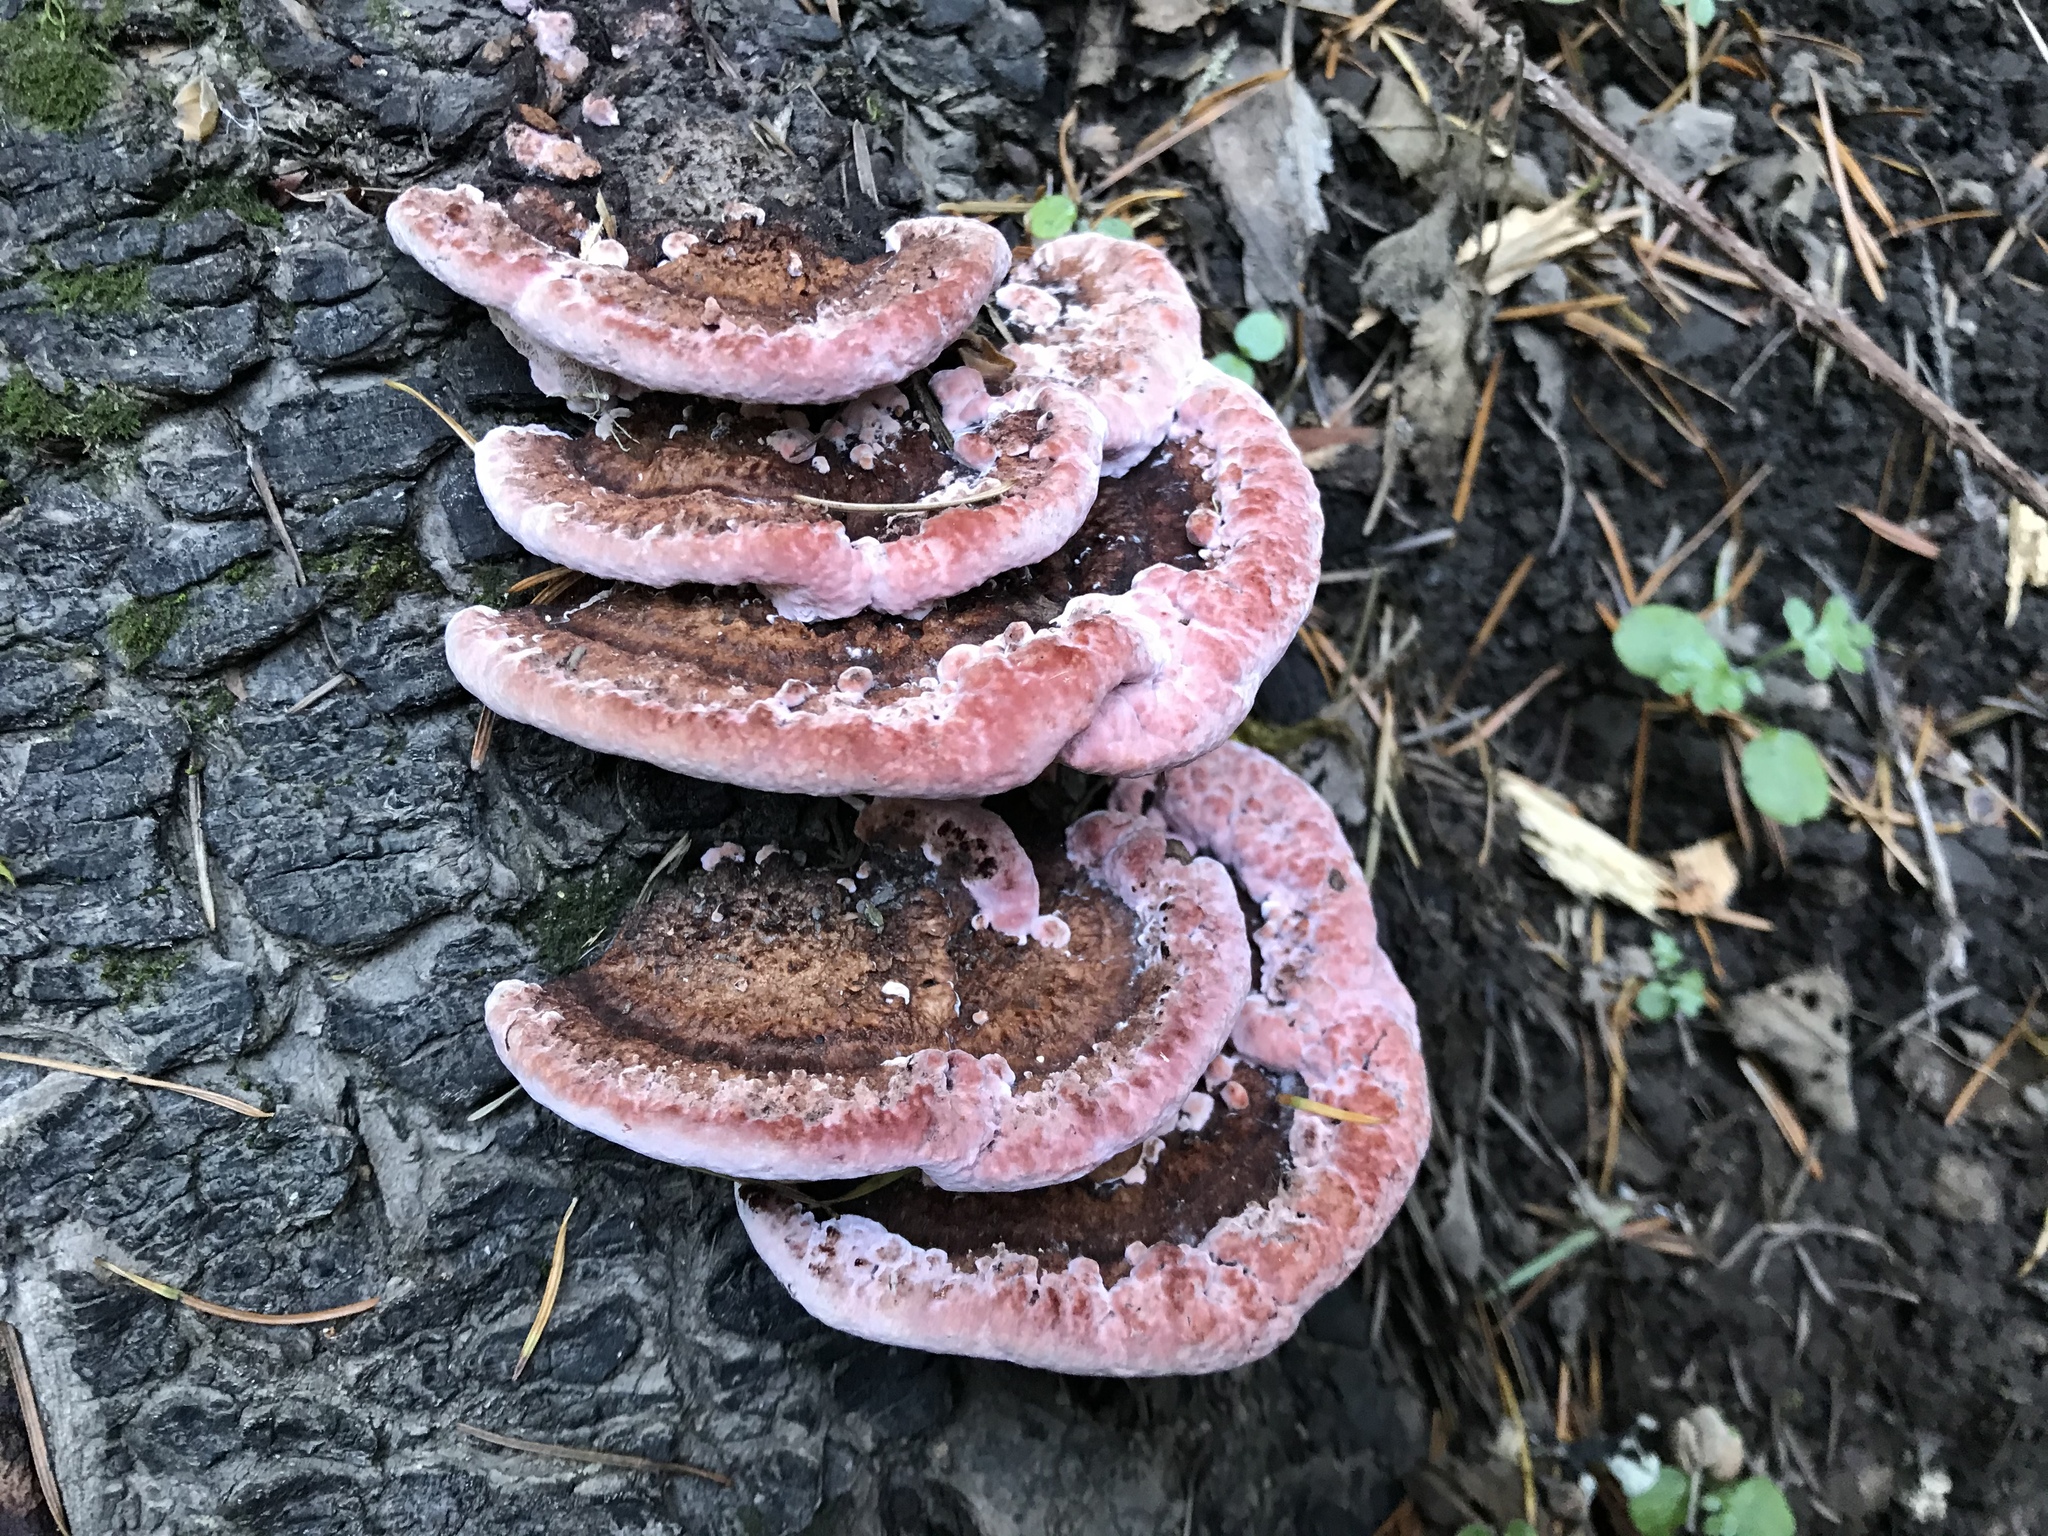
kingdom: Fungi
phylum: Basidiomycota
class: Agaricomycetes
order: Polyporales
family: Fomitopsidaceae
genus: Rhodofomes
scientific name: Rhodofomes cajanderi
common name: Rosy conk
